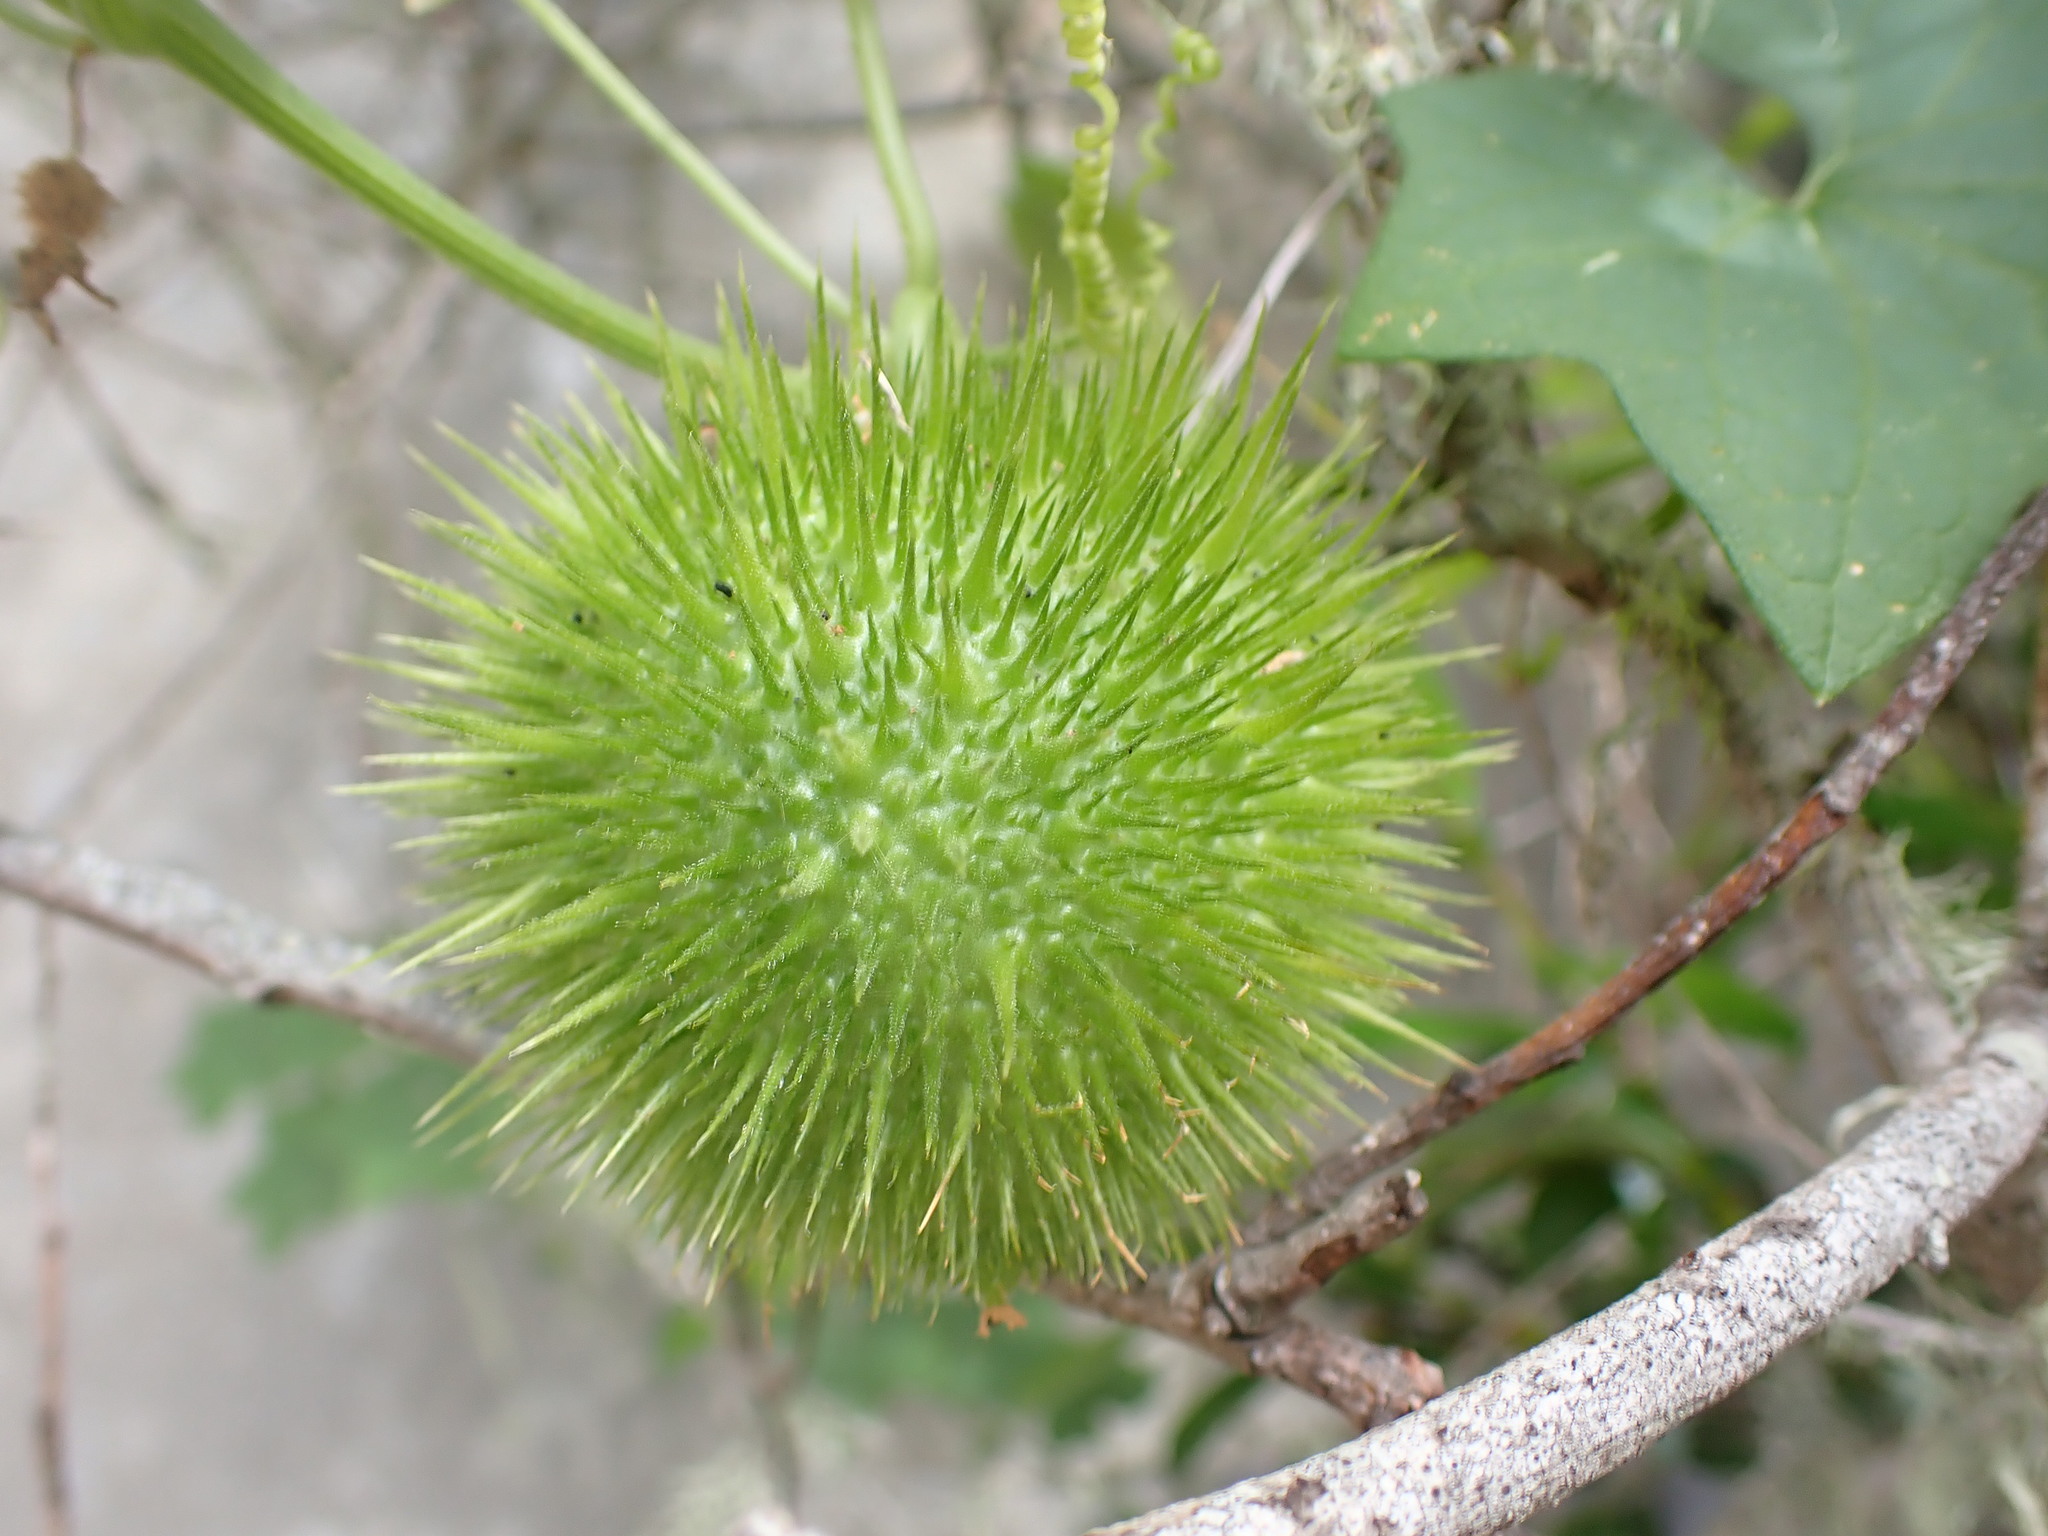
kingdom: Plantae
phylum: Tracheophyta
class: Magnoliopsida
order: Cucurbitales
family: Cucurbitaceae
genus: Marah
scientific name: Marah fabacea
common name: California manroot
